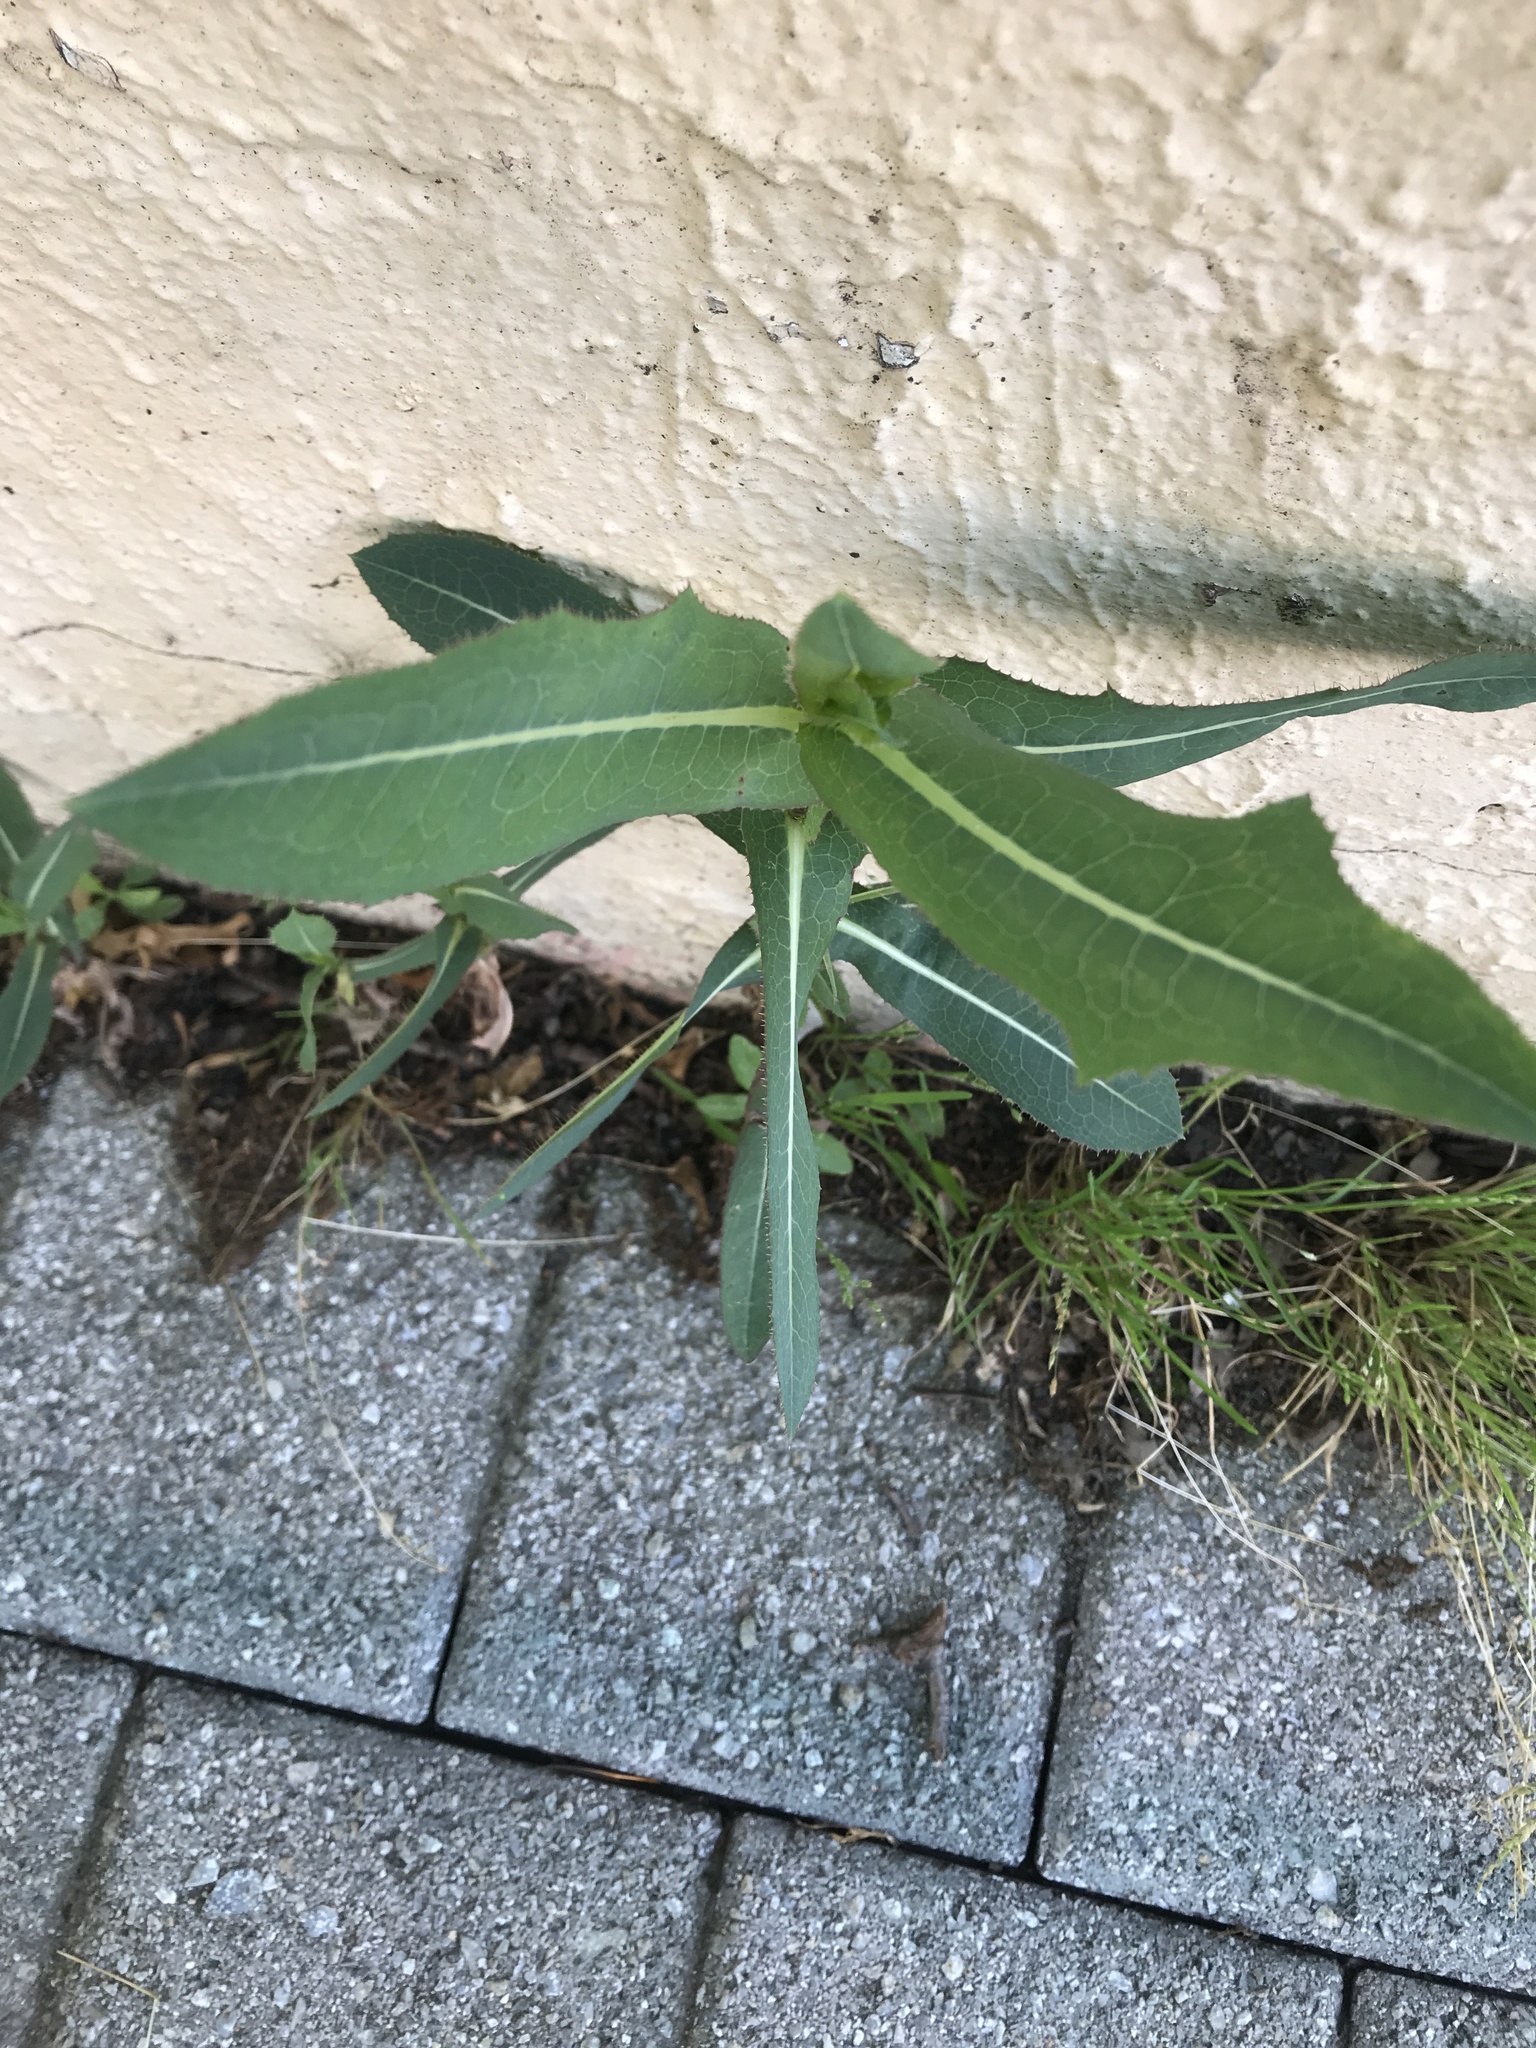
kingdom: Plantae
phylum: Tracheophyta
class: Magnoliopsida
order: Asterales
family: Asteraceae
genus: Lactuca
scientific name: Lactuca serriola
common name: Prickly lettuce
